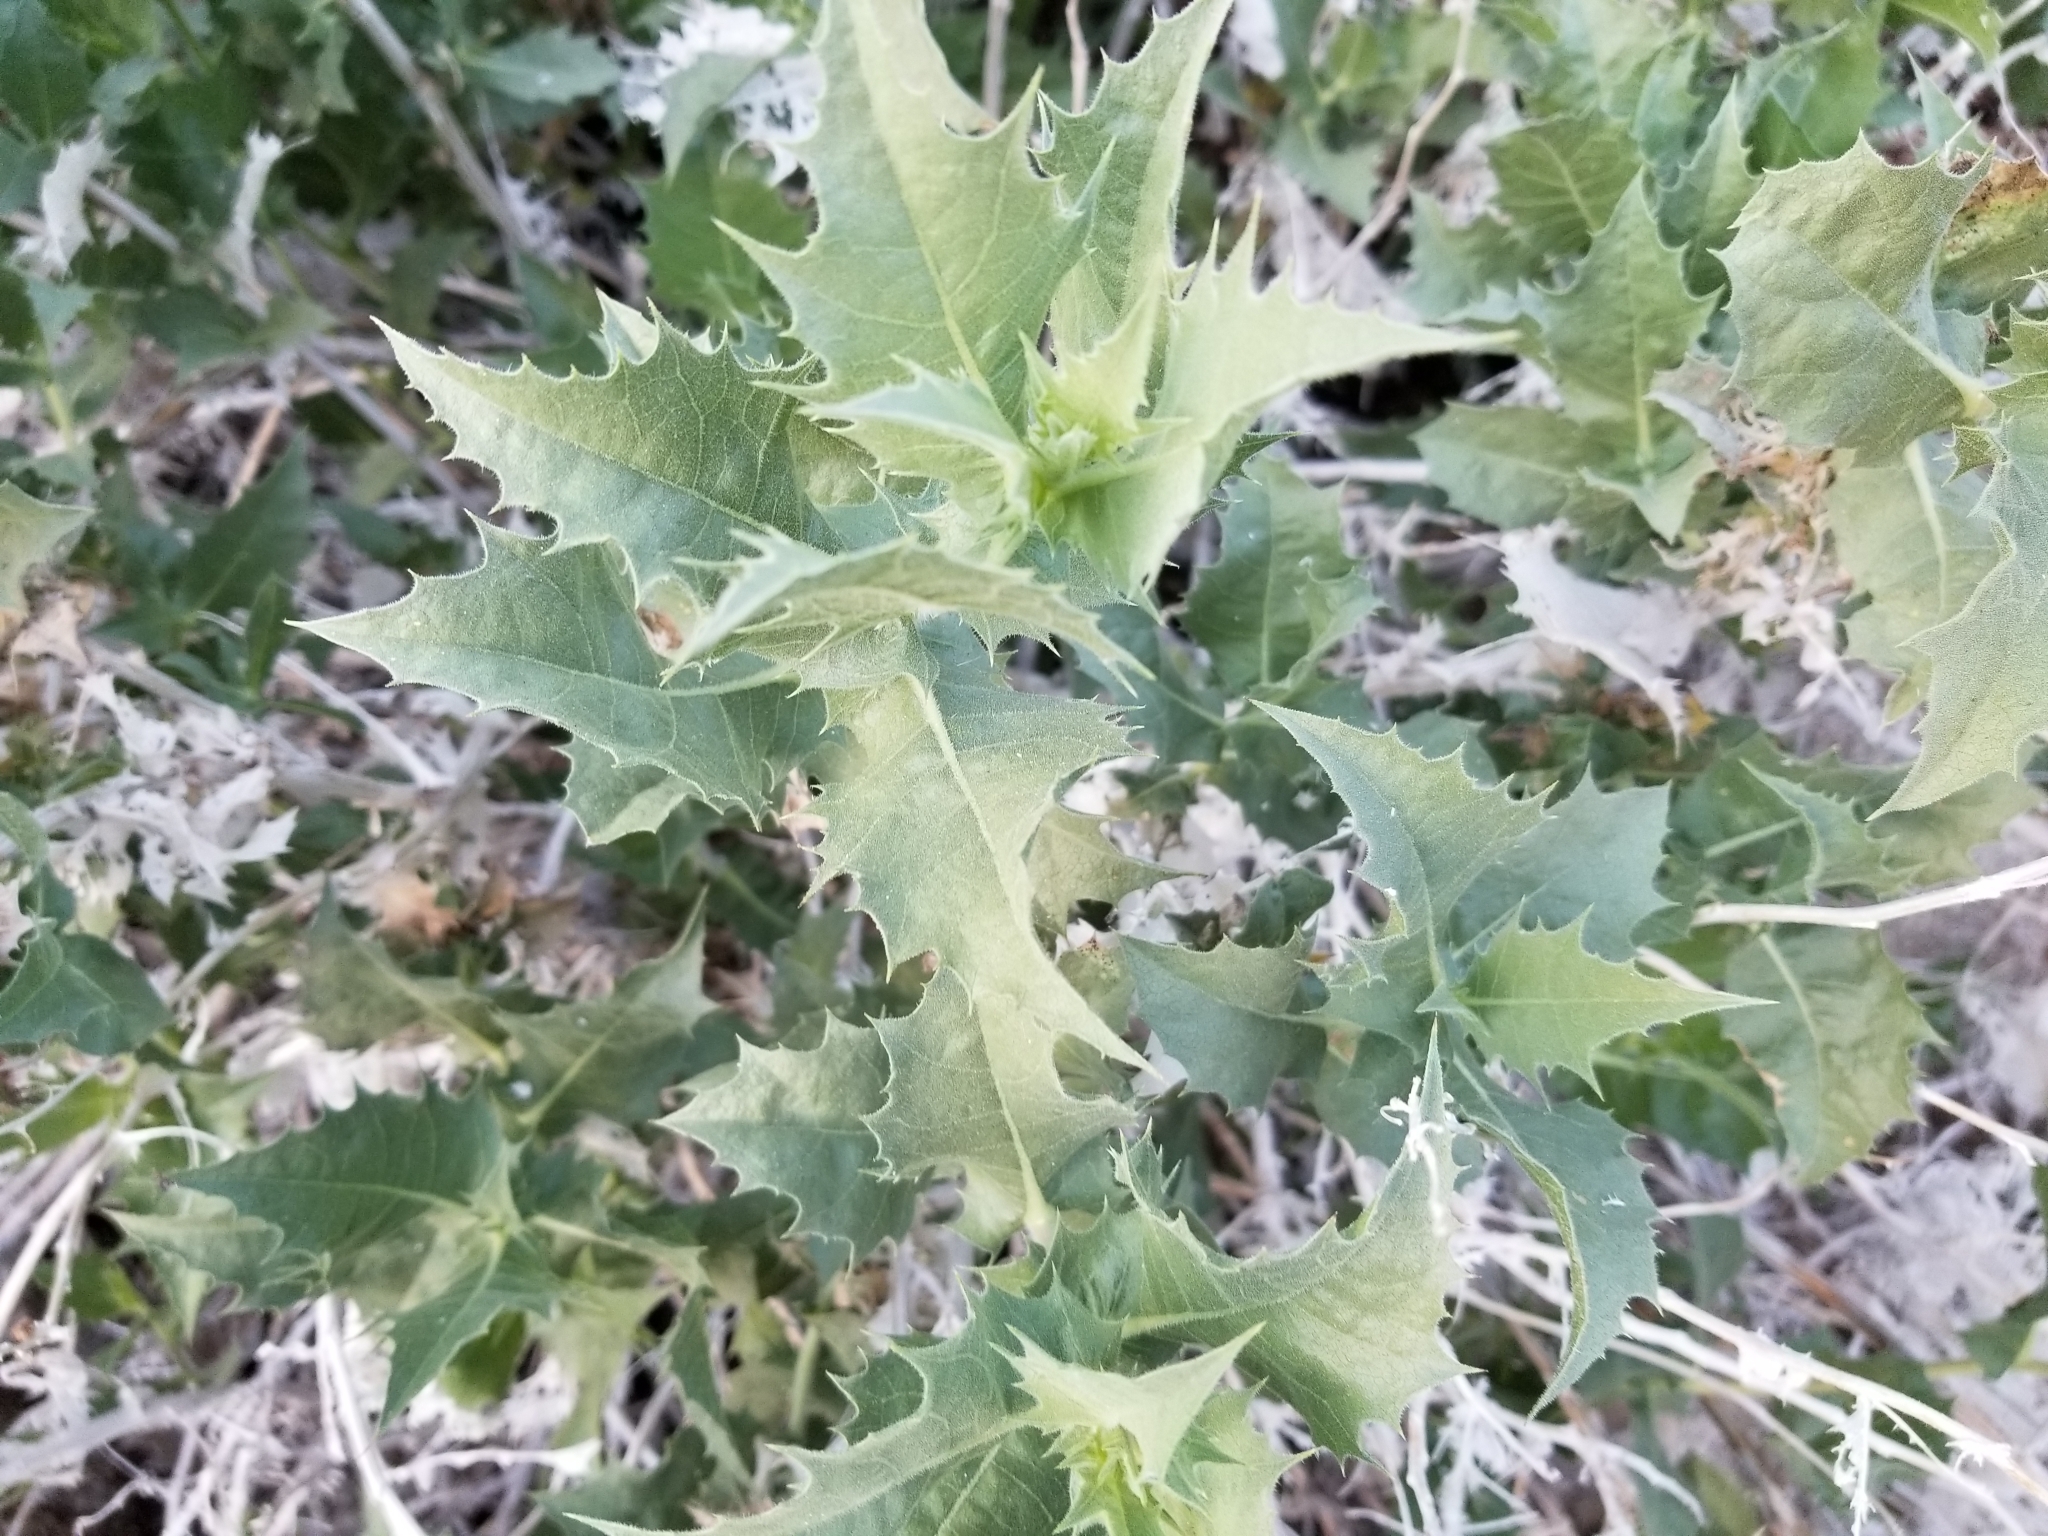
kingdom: Plantae
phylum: Tracheophyta
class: Magnoliopsida
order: Asterales
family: Asteraceae
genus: Ambrosia
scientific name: Ambrosia ilicifolia
